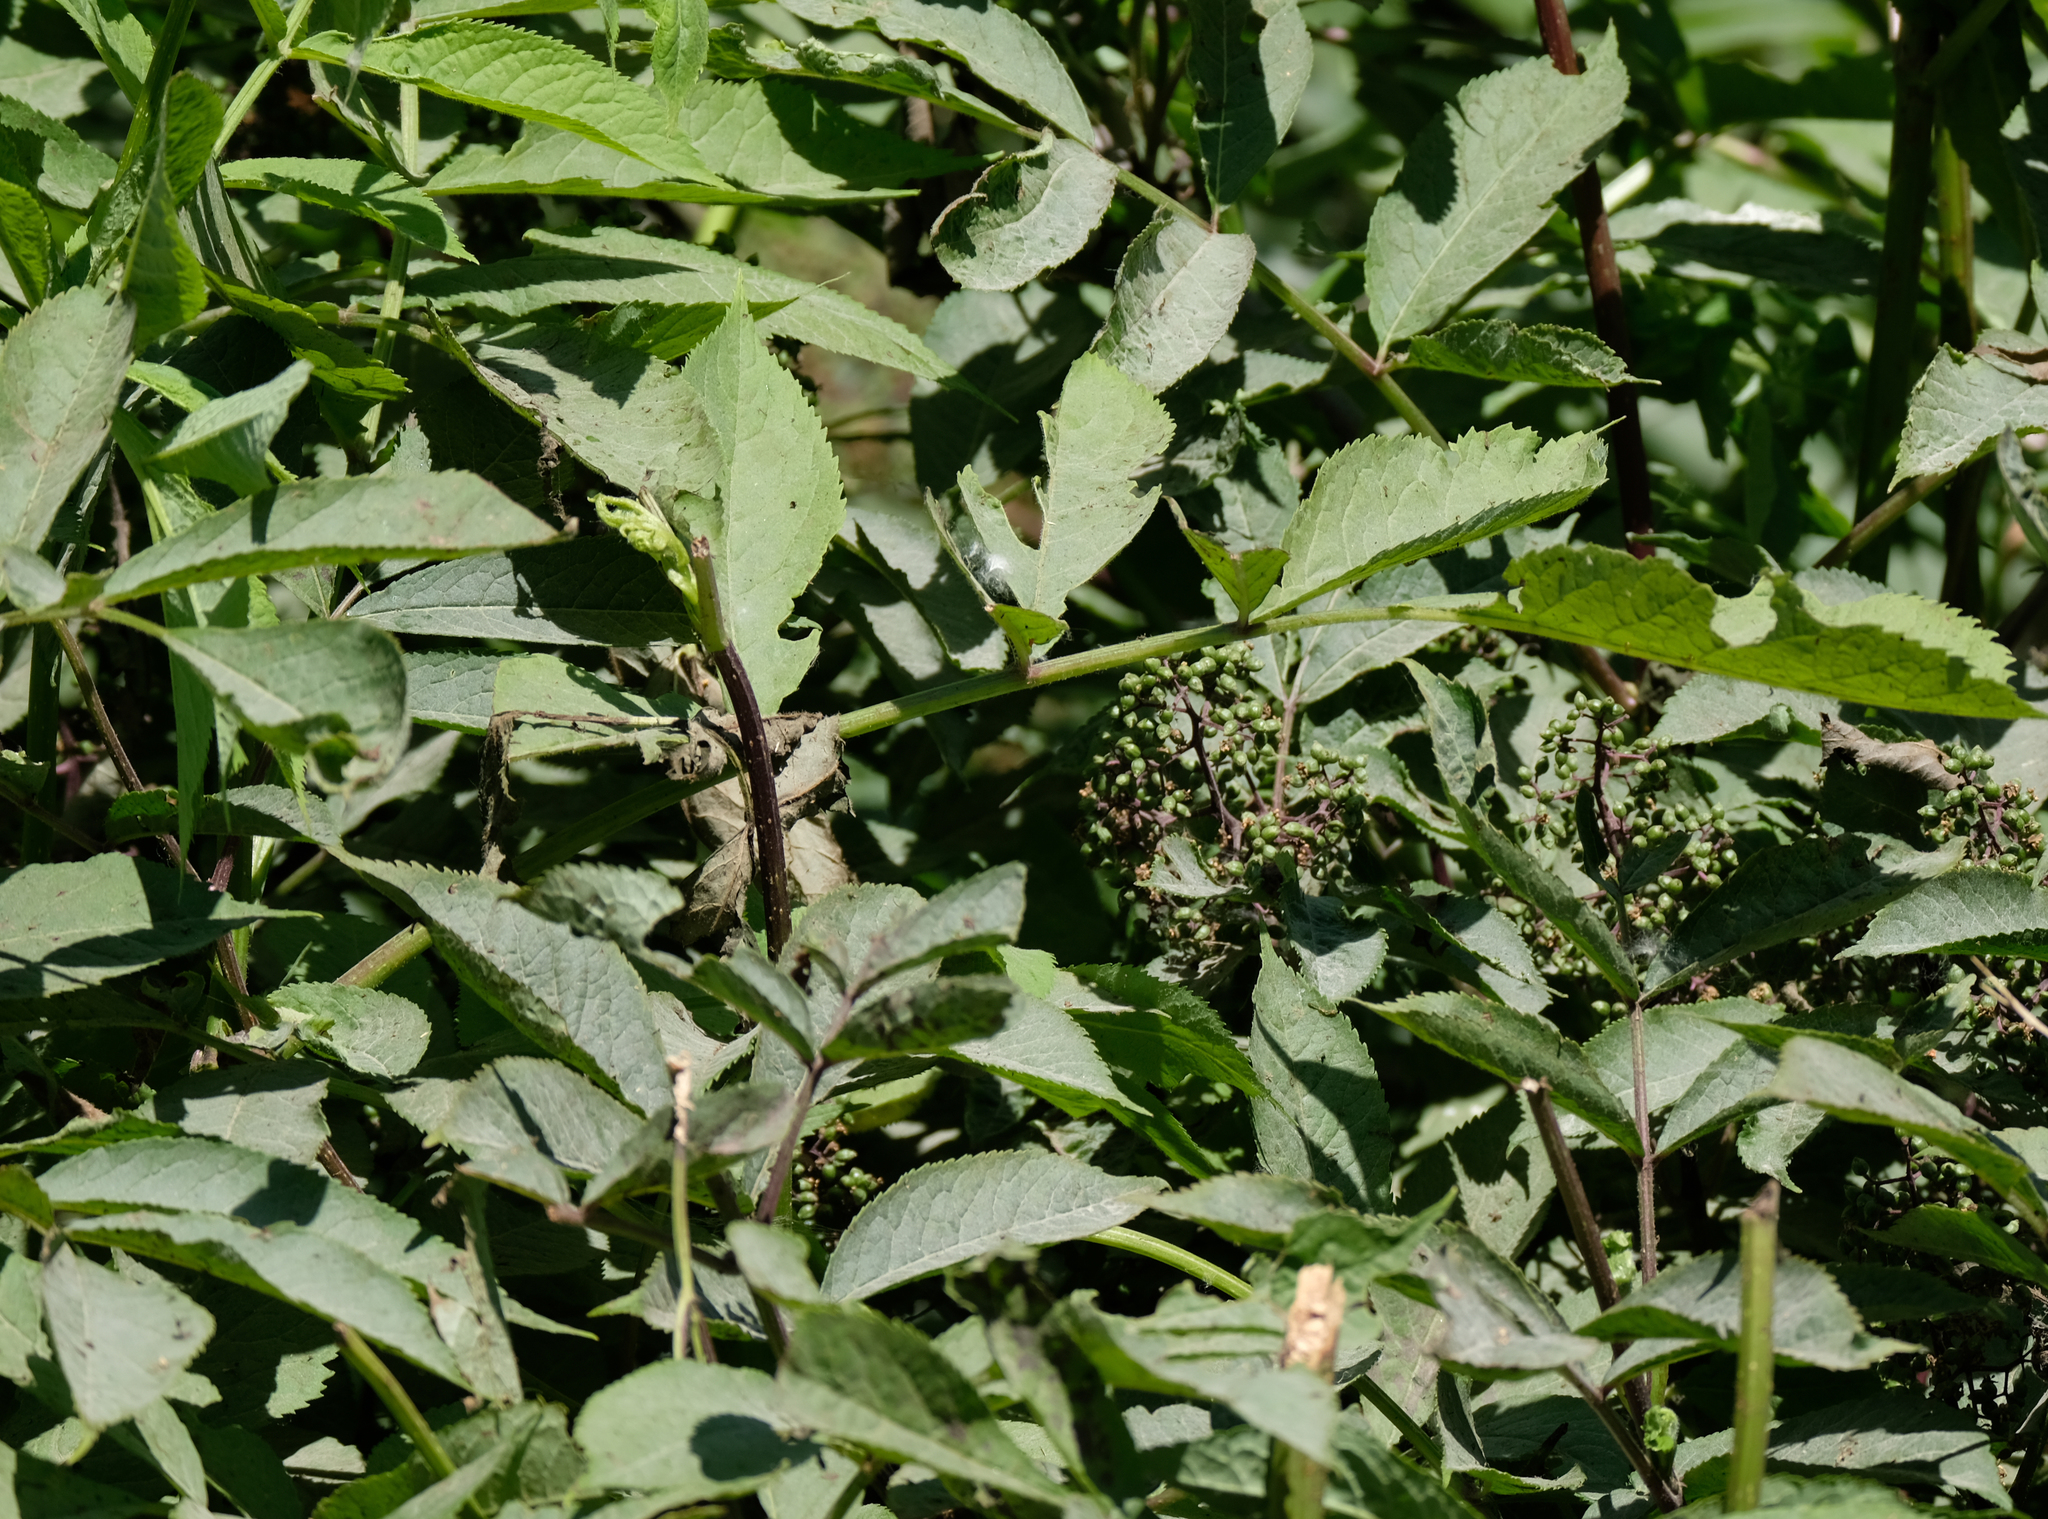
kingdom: Plantae
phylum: Tracheophyta
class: Magnoliopsida
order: Dipsacales
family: Viburnaceae
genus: Sambucus
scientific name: Sambucus racemosa
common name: Red-berried elder
